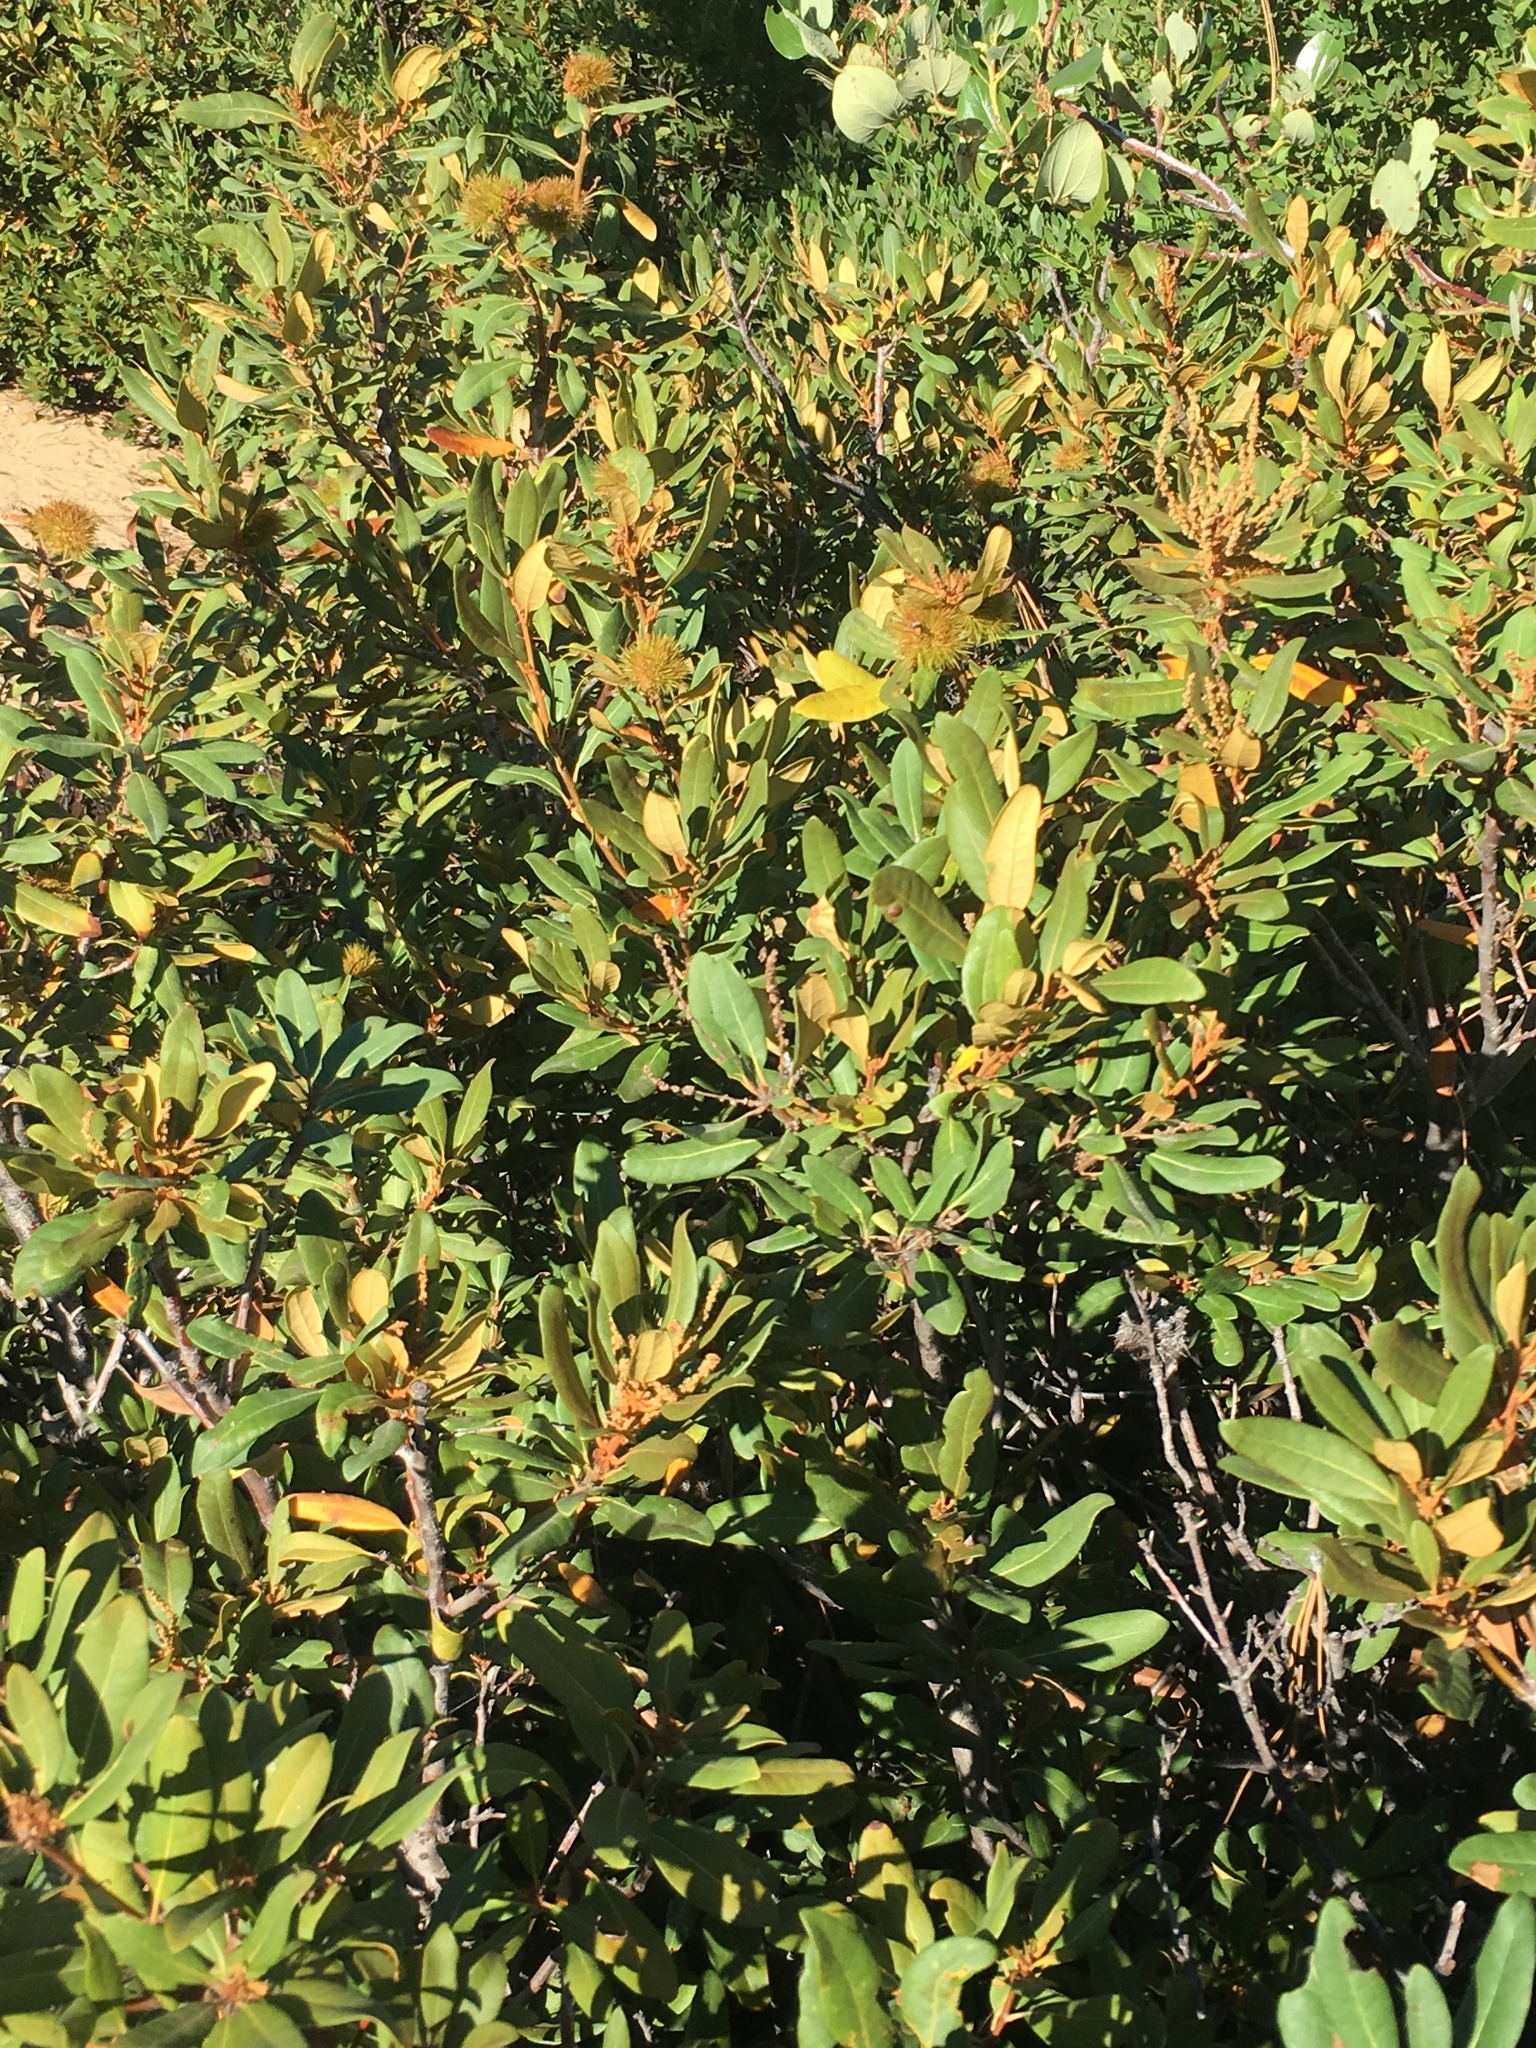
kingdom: Plantae
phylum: Tracheophyta
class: Magnoliopsida
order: Fagales
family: Fagaceae
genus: Chrysolepis
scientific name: Chrysolepis sempervirens
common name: Bush chinquapin
